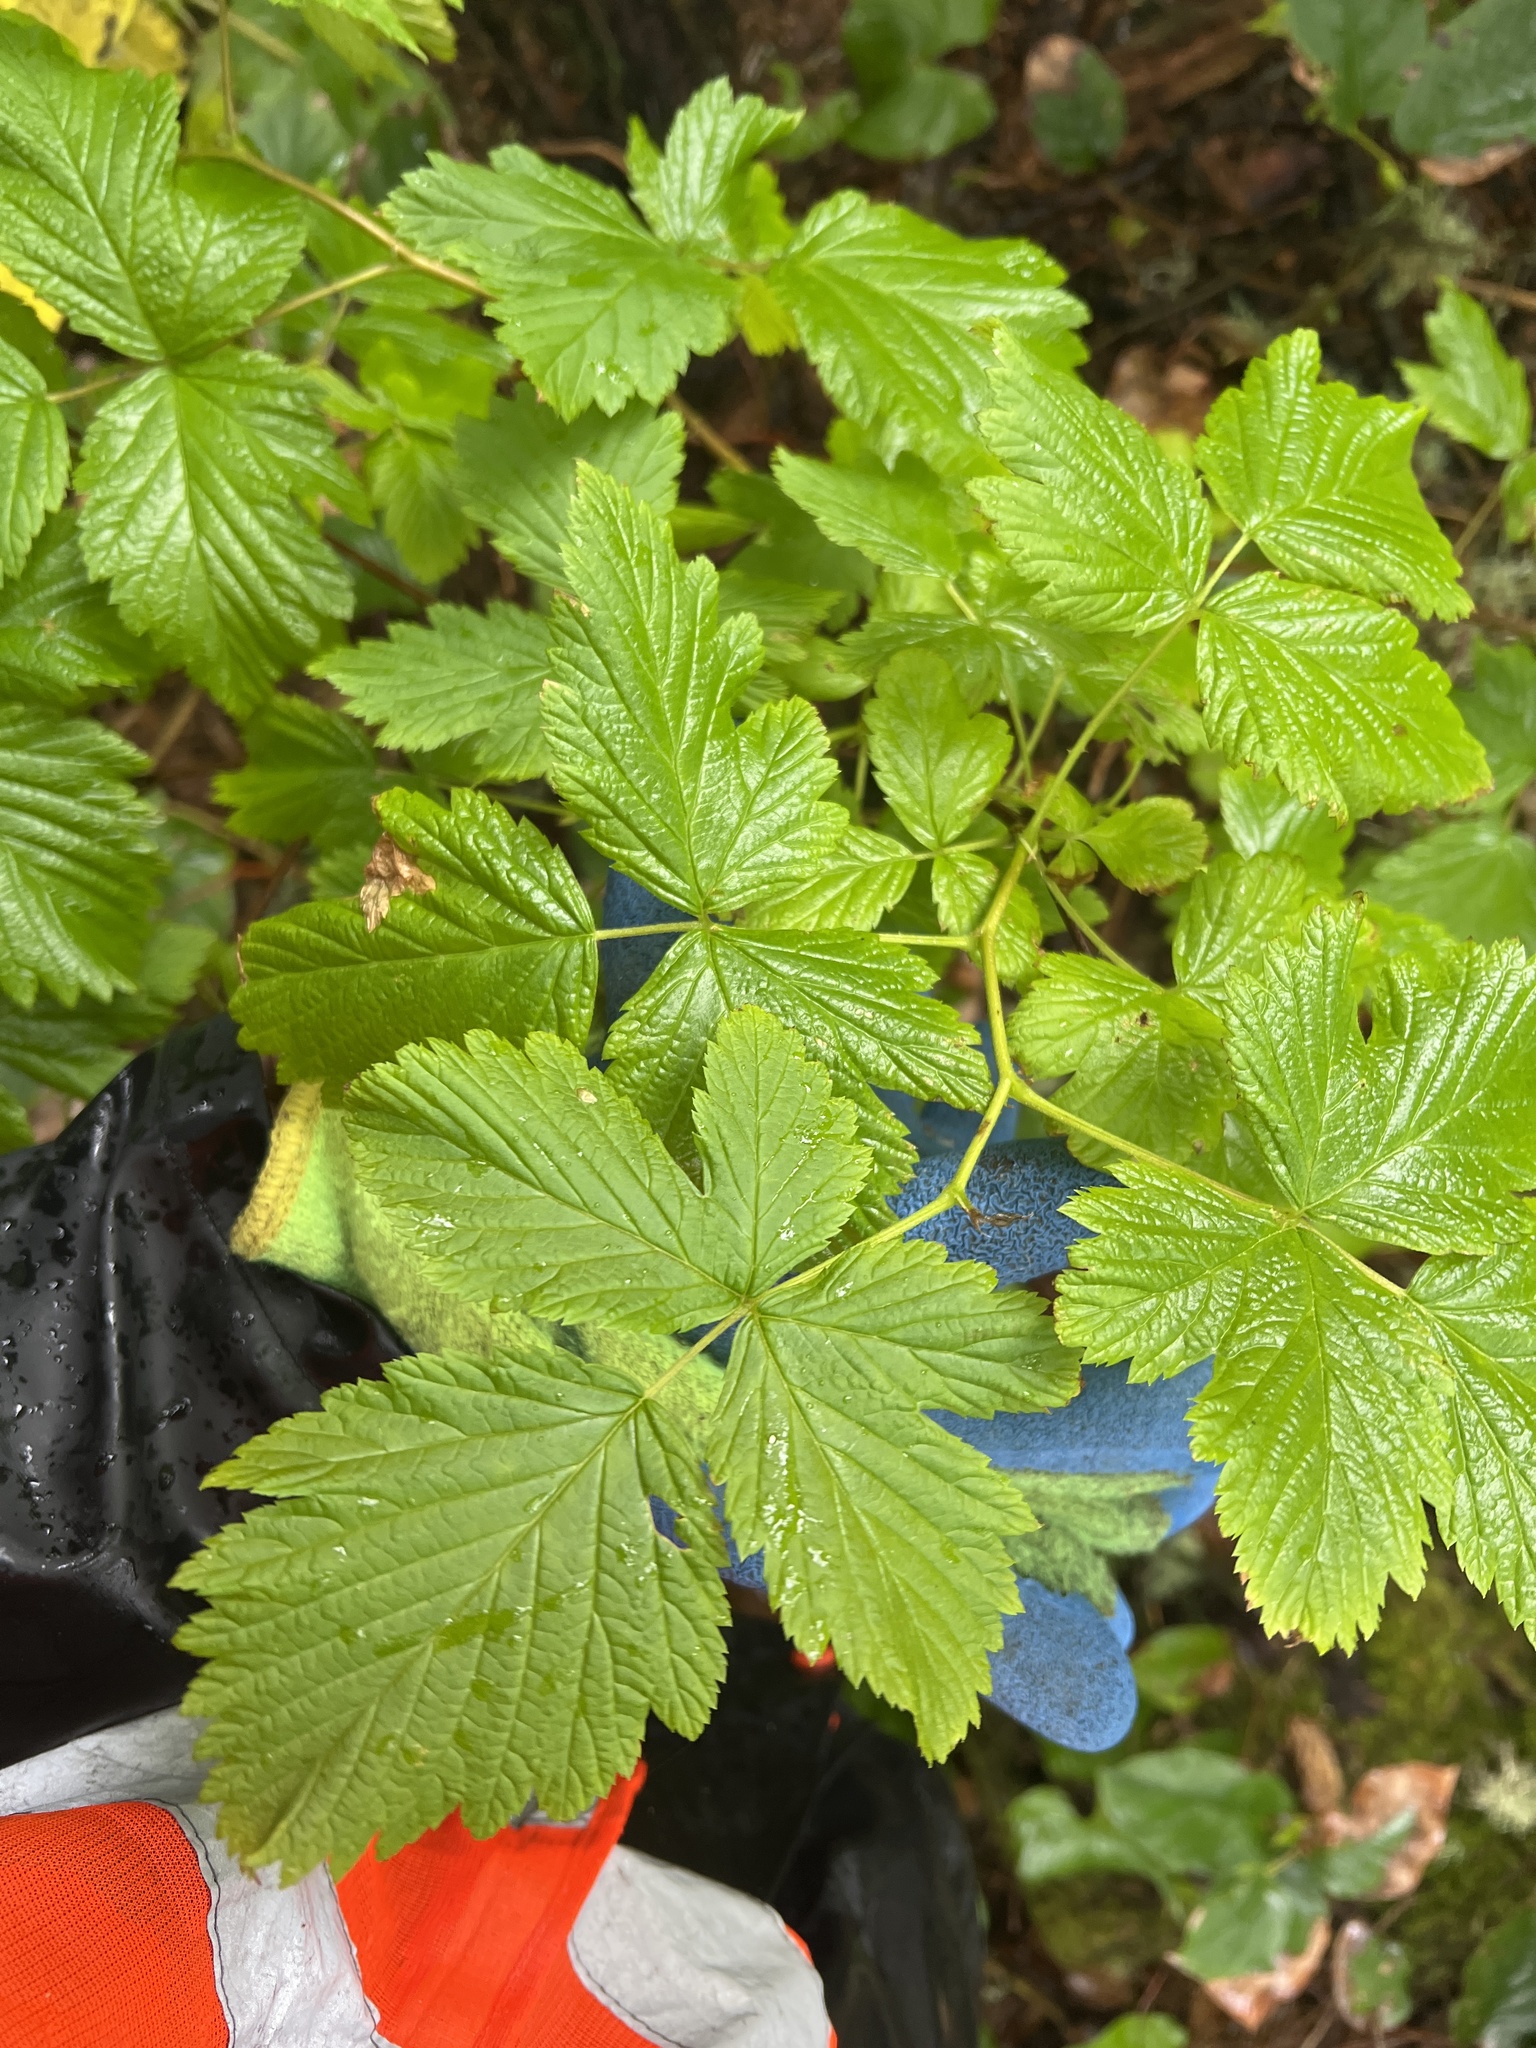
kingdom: Plantae
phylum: Tracheophyta
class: Magnoliopsida
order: Rosales
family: Rosaceae
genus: Rubus
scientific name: Rubus spectabilis
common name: Salmonberry
